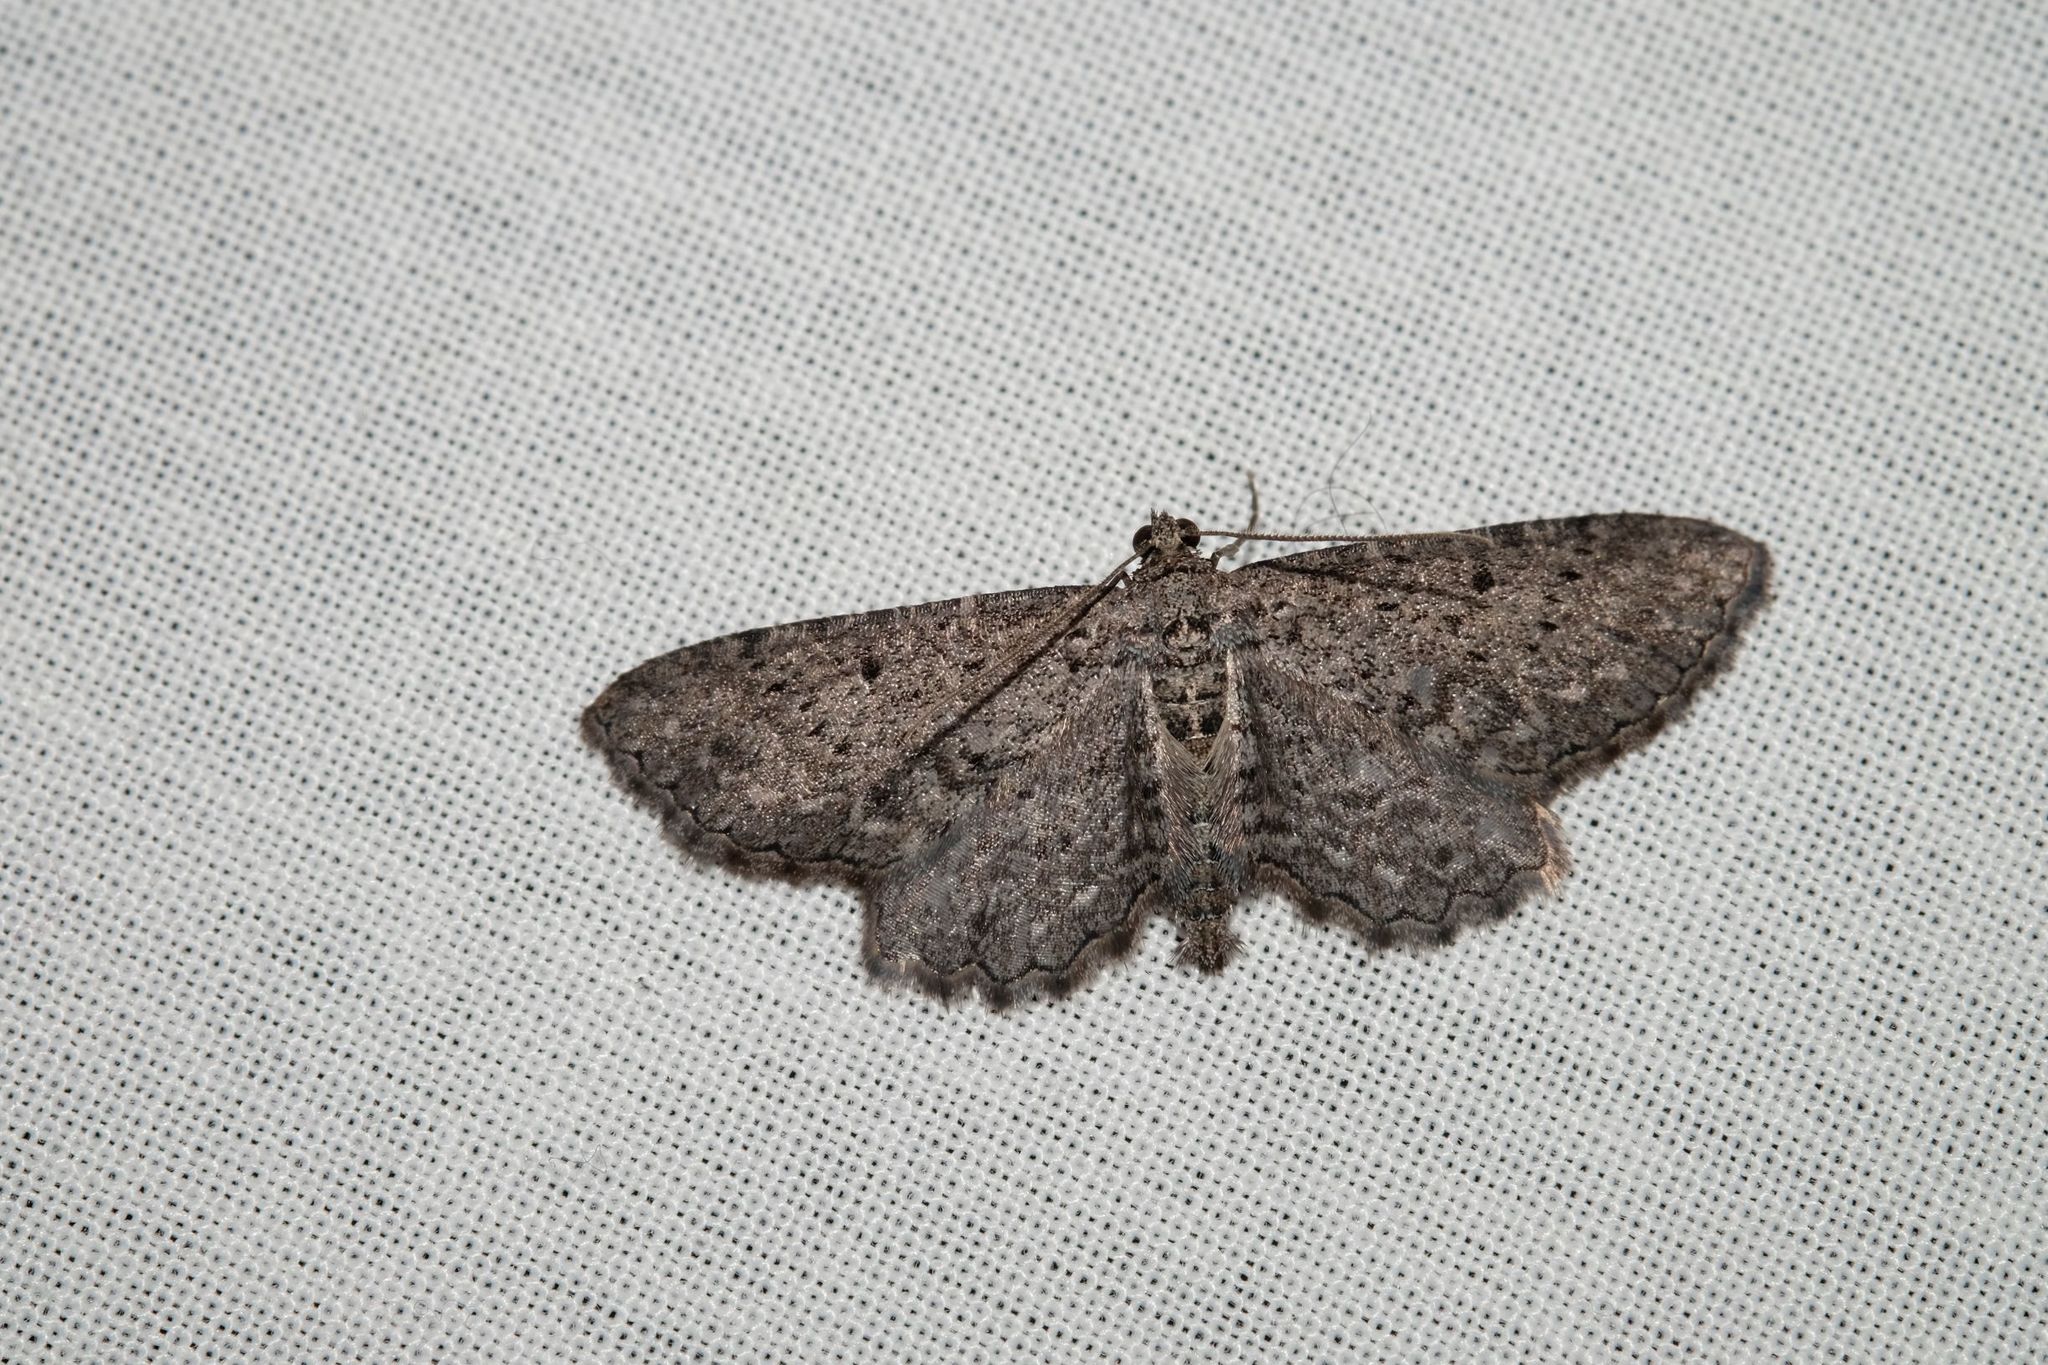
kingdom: Animalia
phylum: Arthropoda
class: Insecta
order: Lepidoptera
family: Geometridae
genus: Psilosticha
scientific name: Psilosticha pristis
